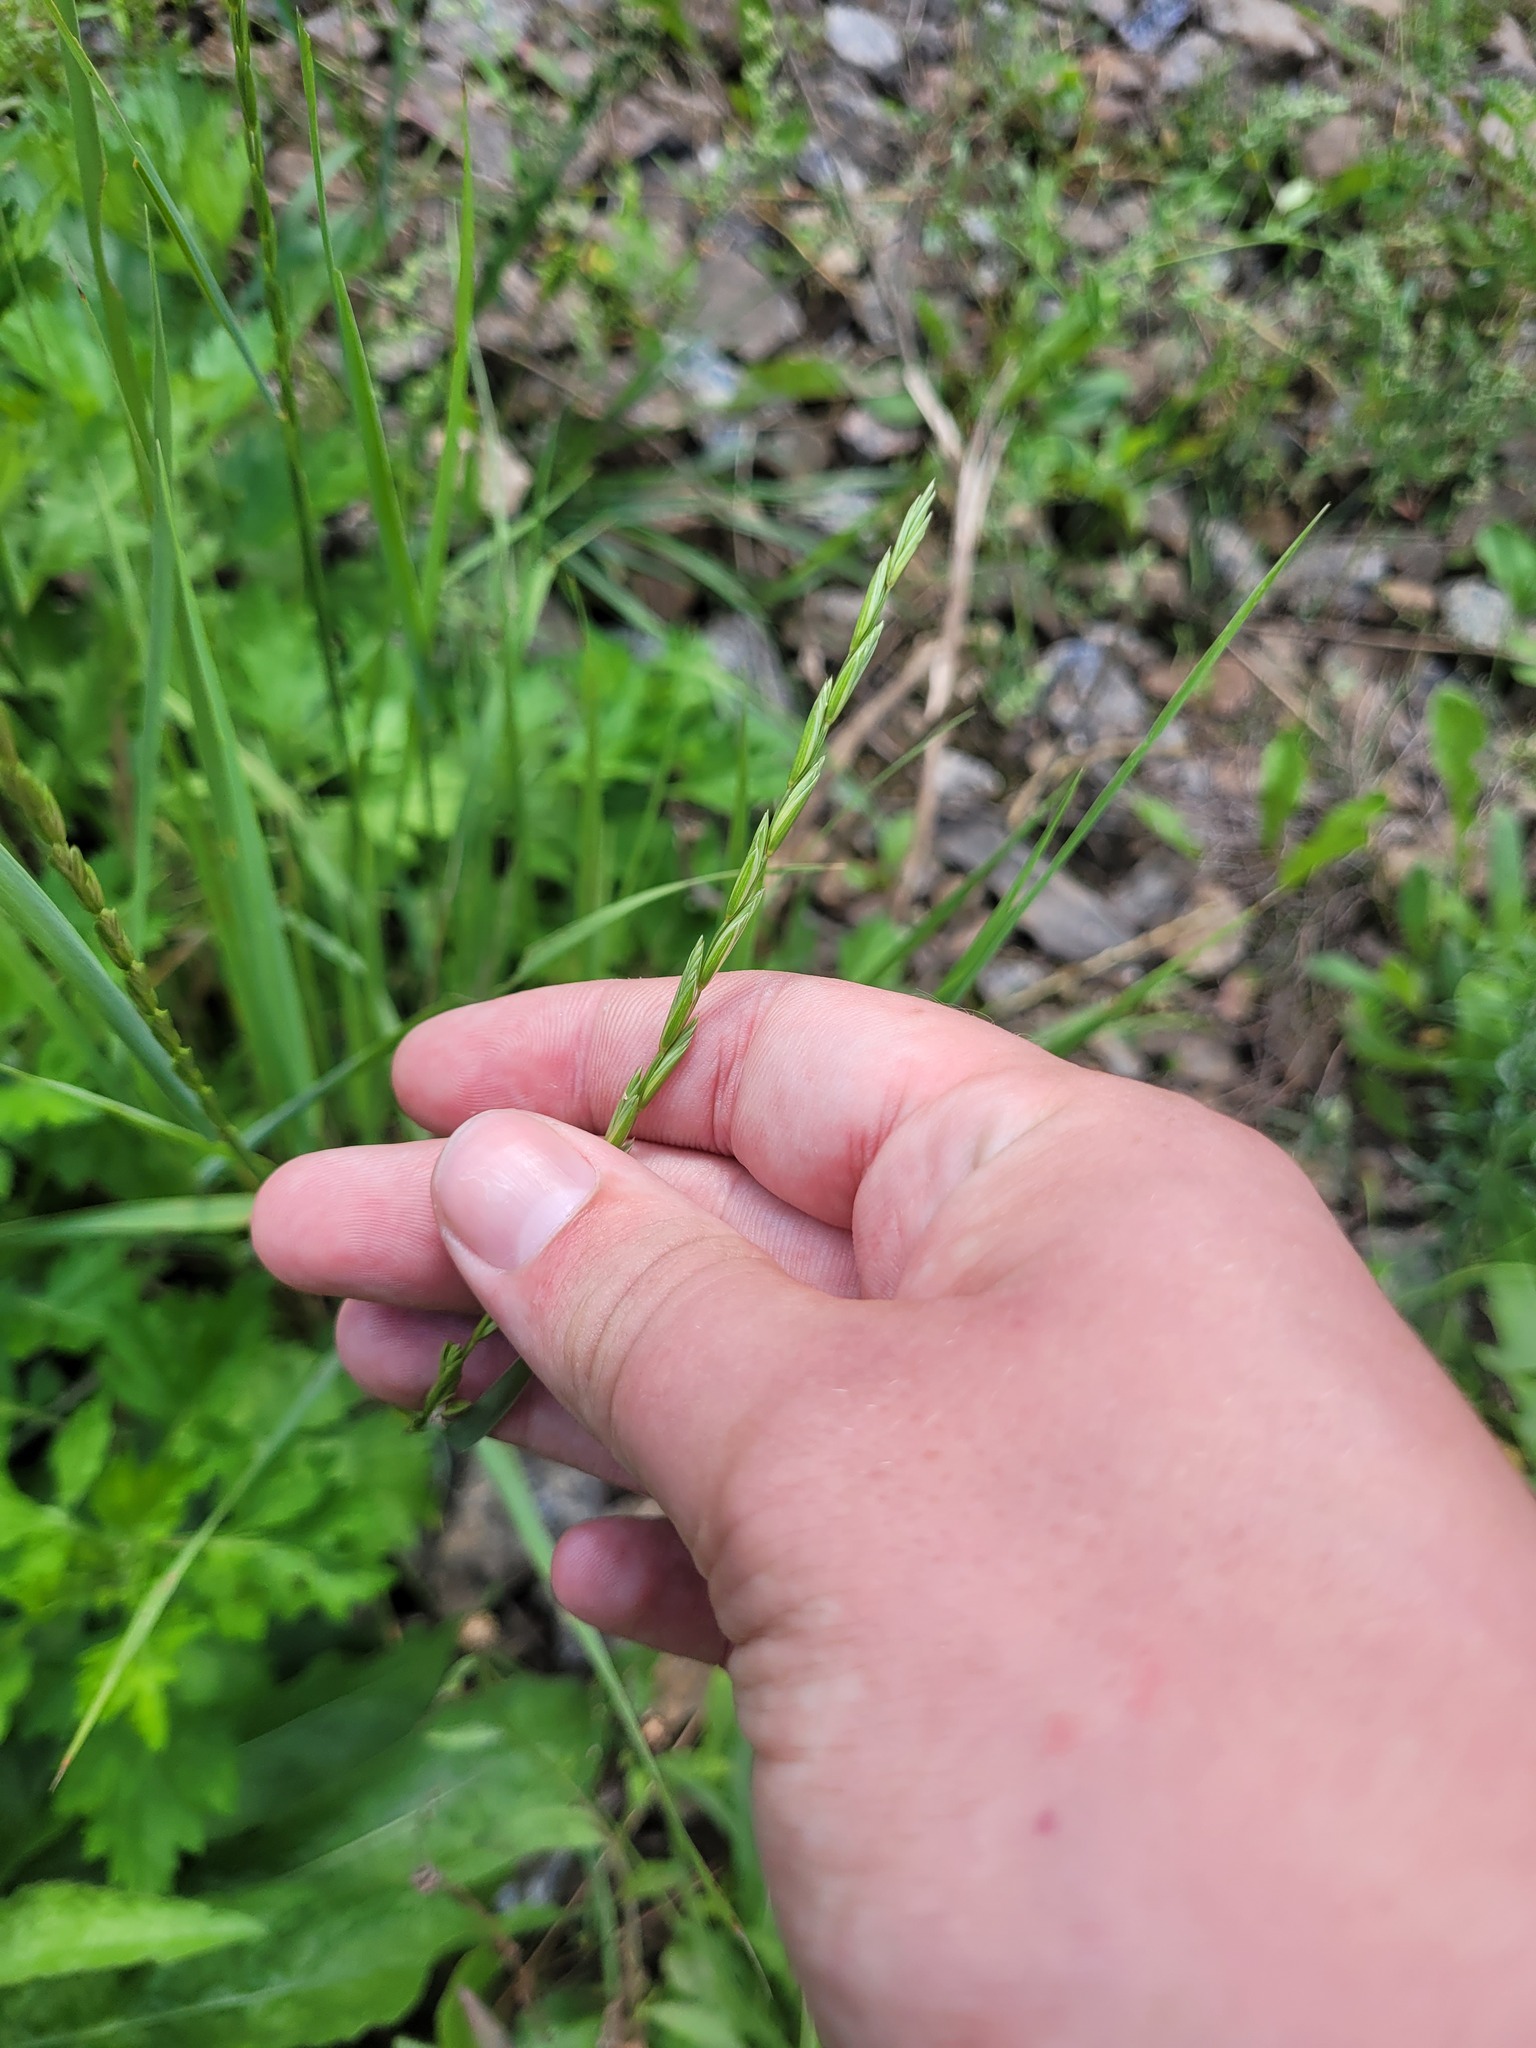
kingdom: Plantae
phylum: Tracheophyta
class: Liliopsida
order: Poales
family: Poaceae
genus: Elymus
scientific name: Elymus repens
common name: Quackgrass
